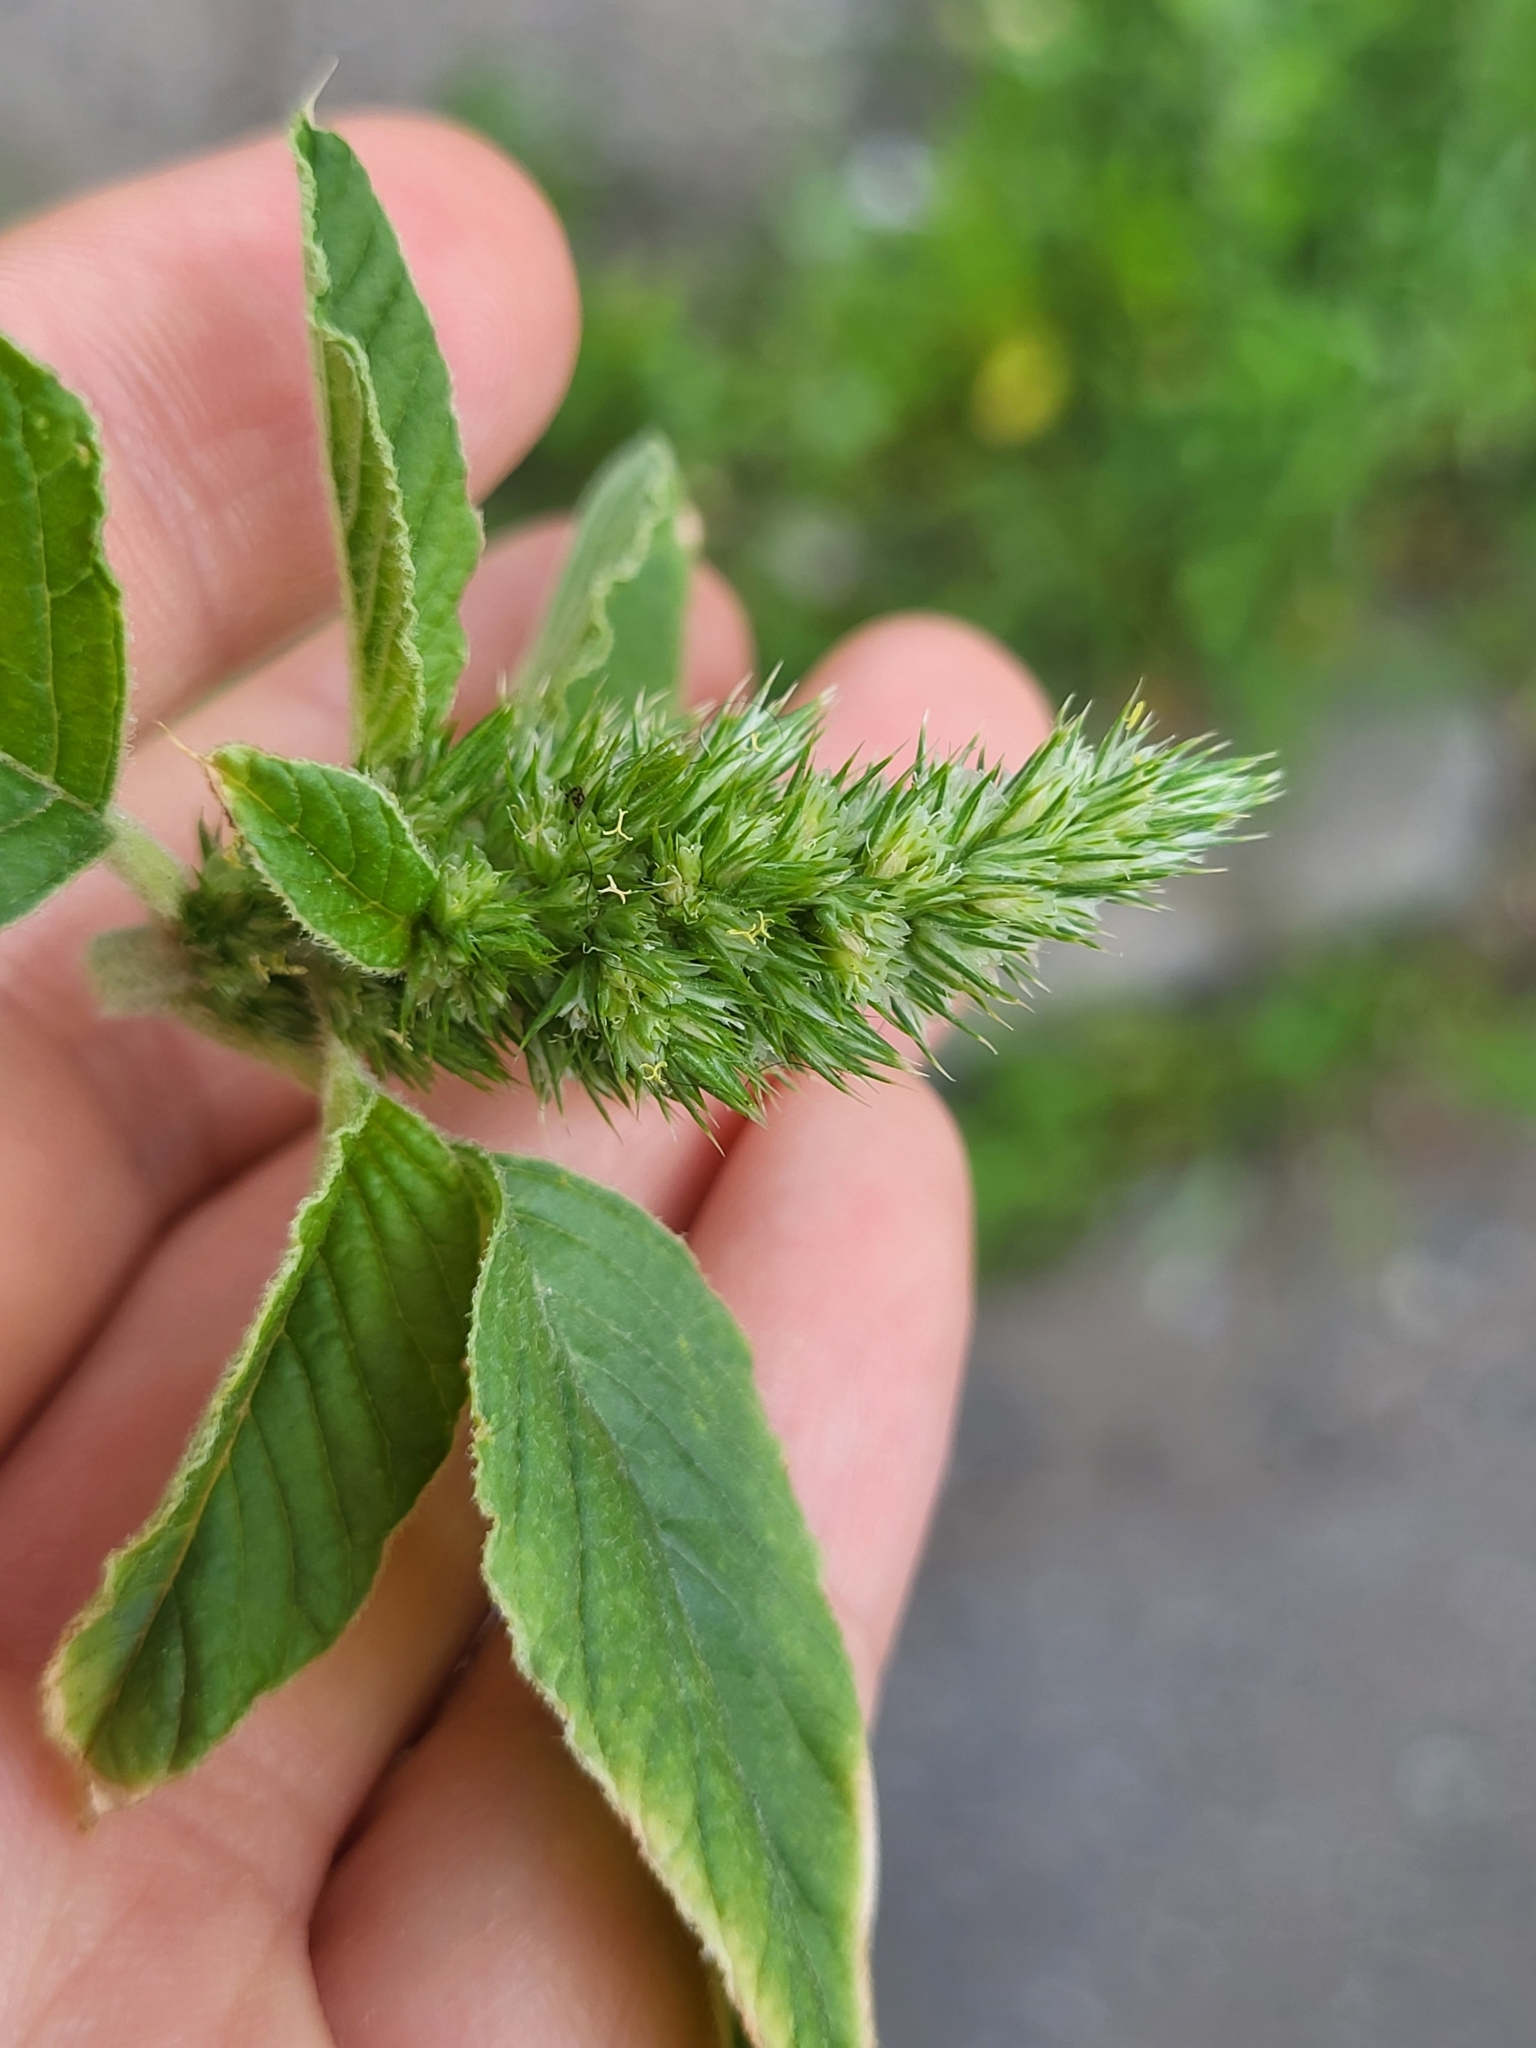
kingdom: Plantae
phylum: Tracheophyta
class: Magnoliopsida
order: Caryophyllales
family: Amaranthaceae
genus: Amaranthus
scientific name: Amaranthus retroflexus
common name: Redroot amaranth
